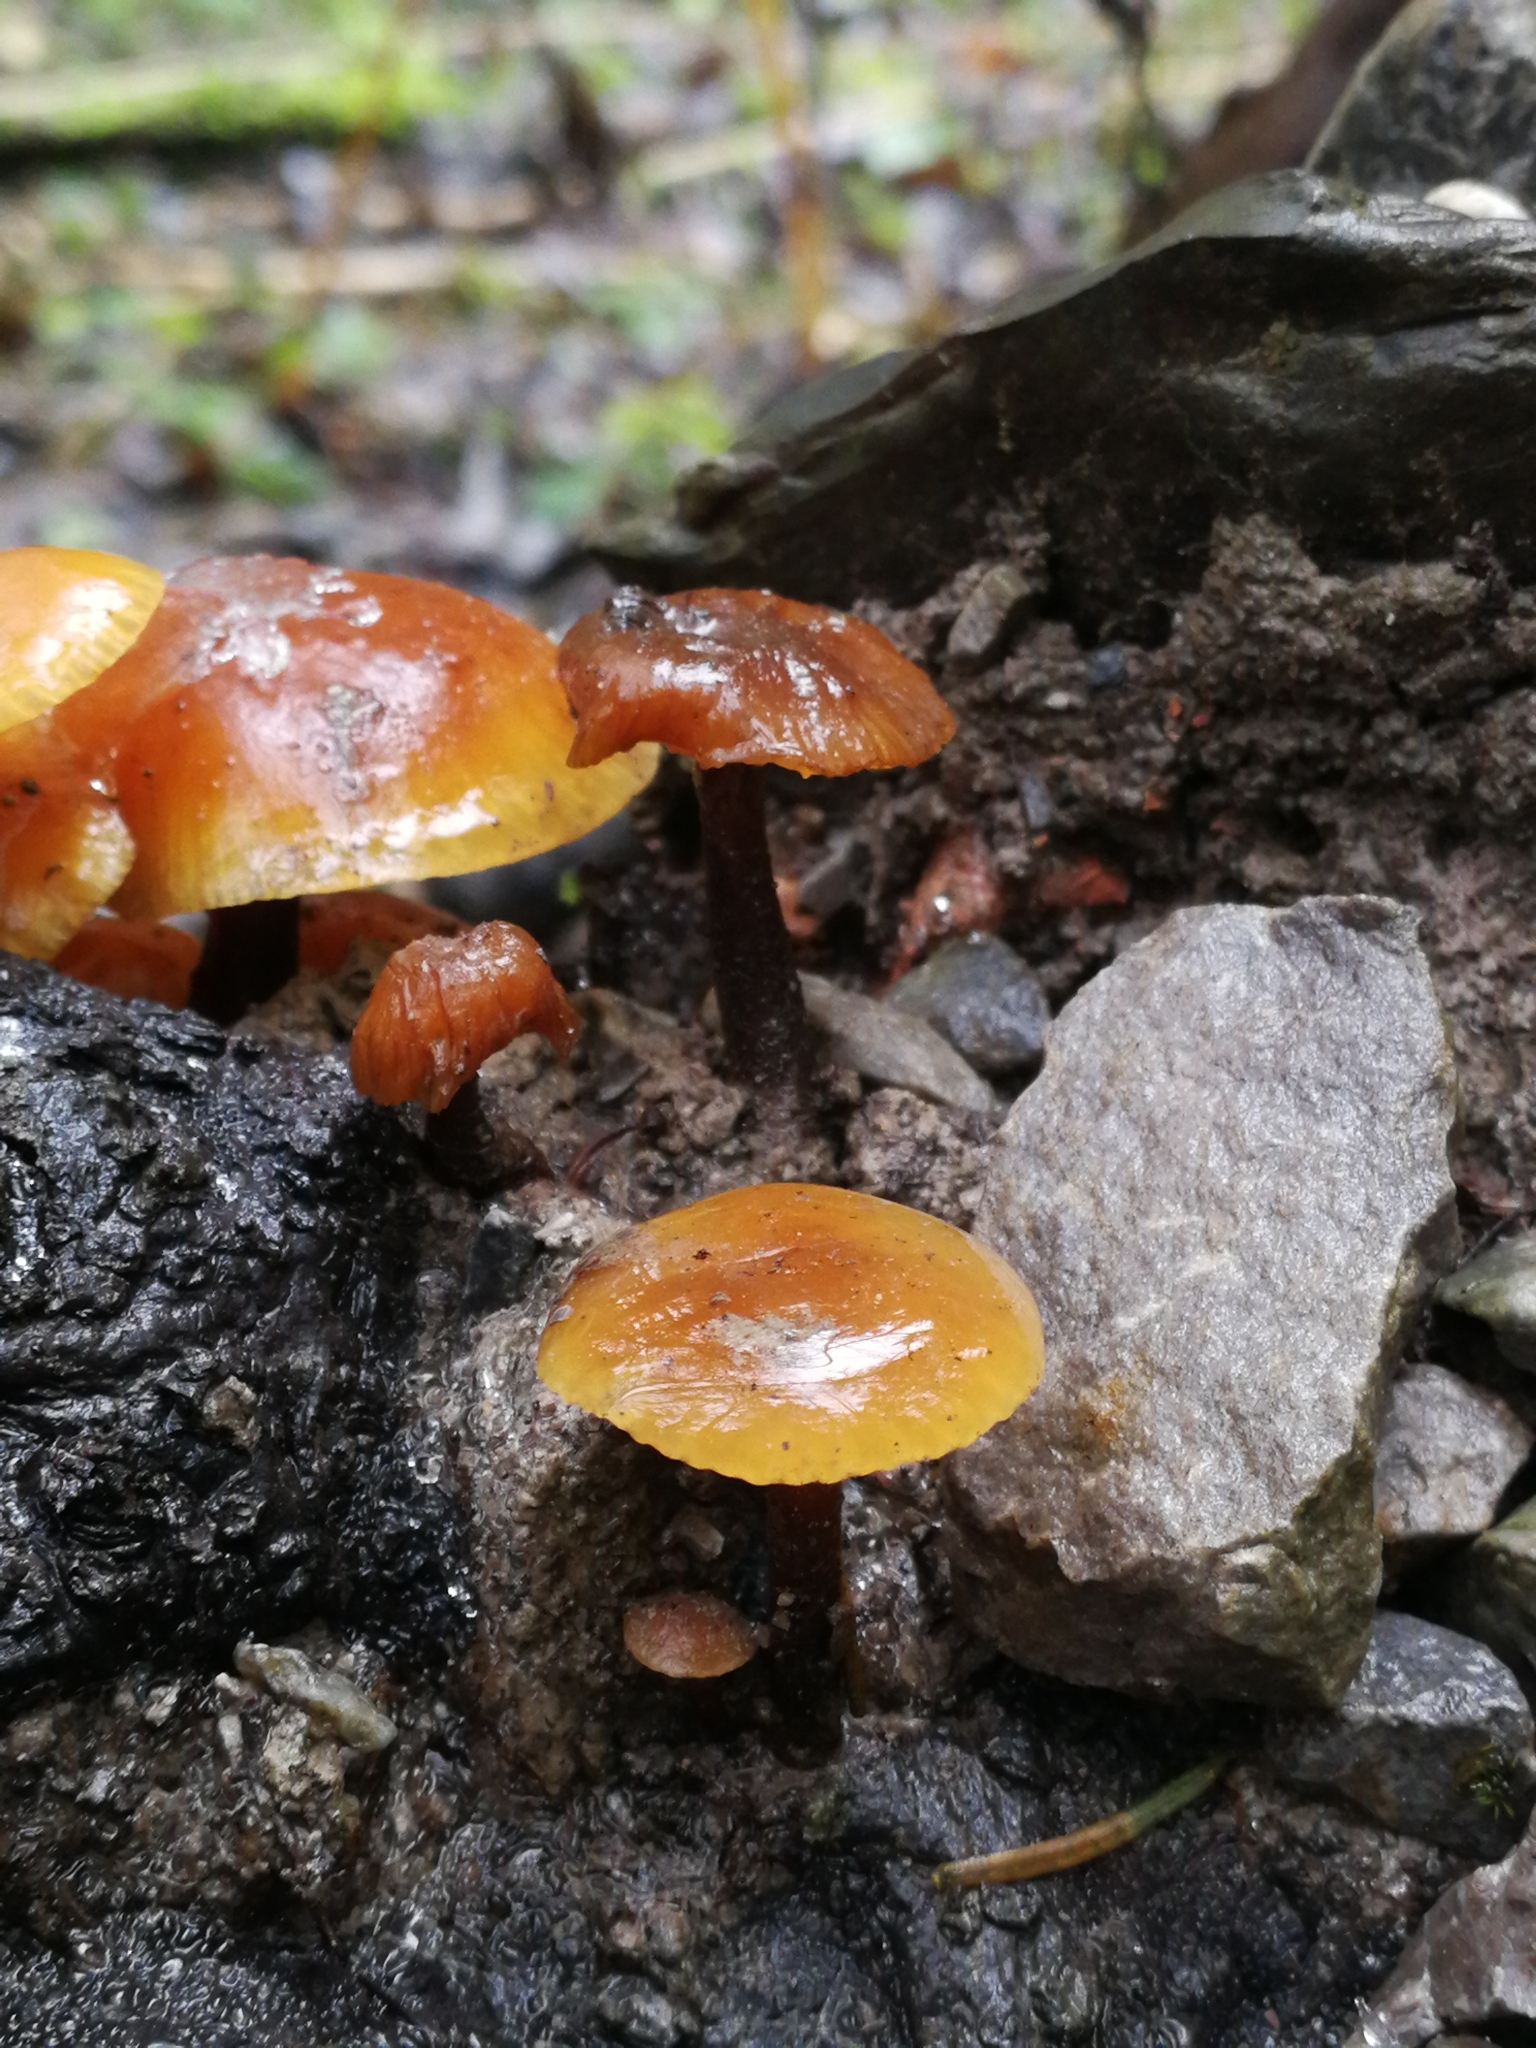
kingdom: Fungi
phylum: Basidiomycota
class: Agaricomycetes
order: Agaricales
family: Physalacriaceae
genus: Flammulina
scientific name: Flammulina
